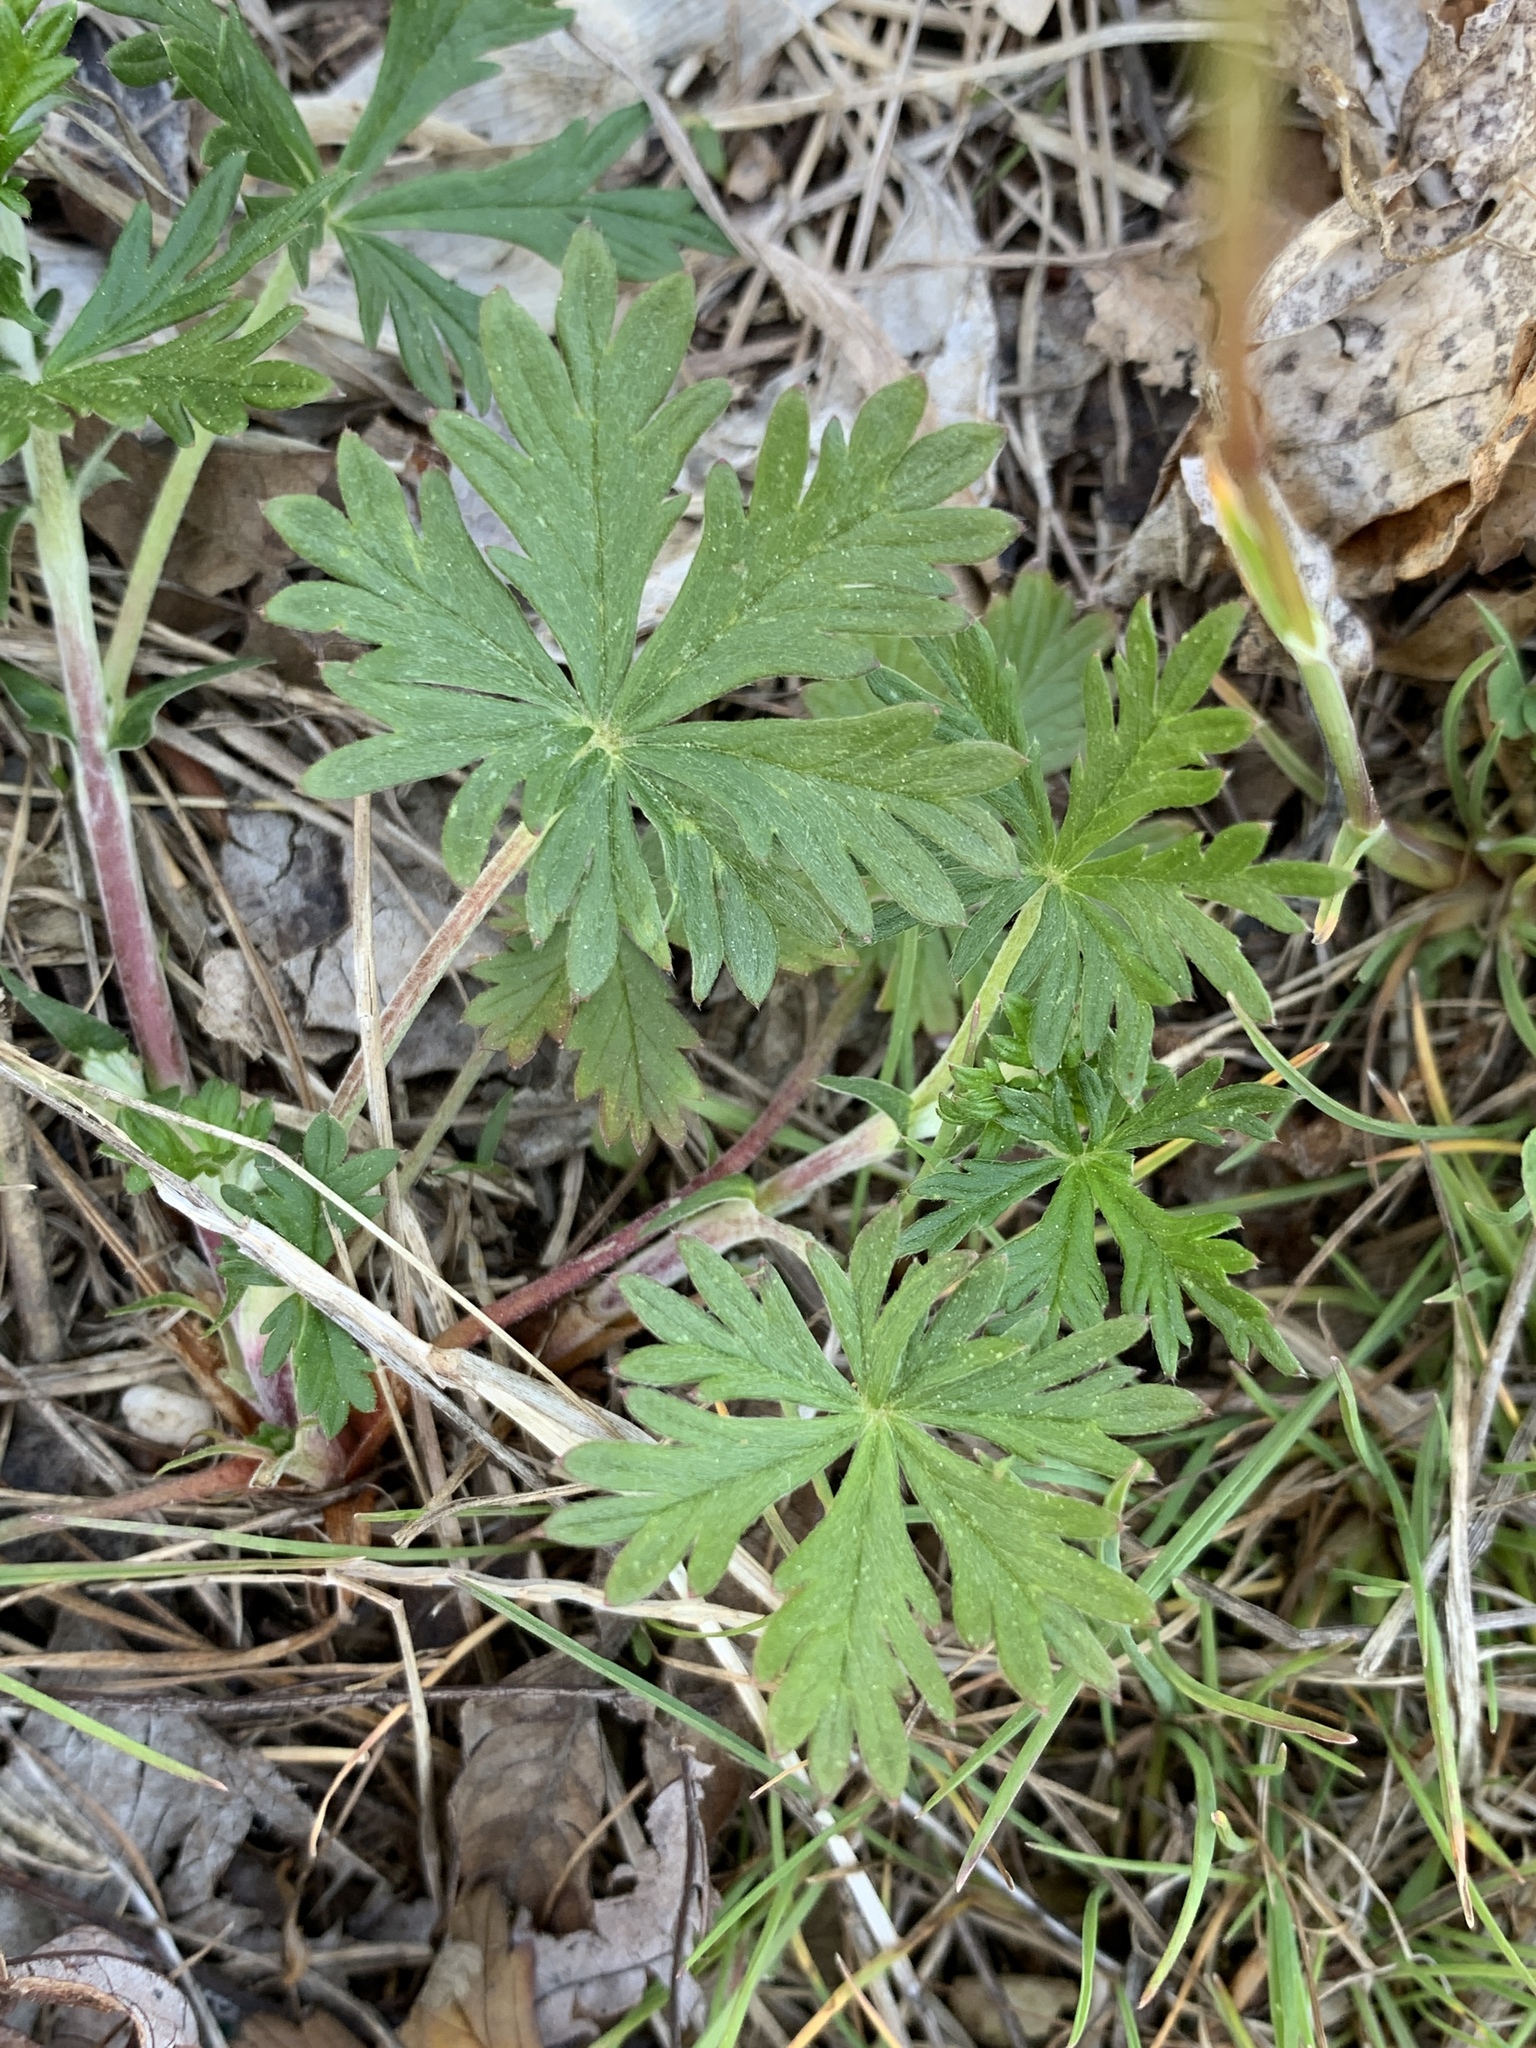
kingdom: Plantae
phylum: Tracheophyta
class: Magnoliopsida
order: Rosales
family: Rosaceae
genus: Potentilla
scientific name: Potentilla argentea
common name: Hoary cinquefoil
